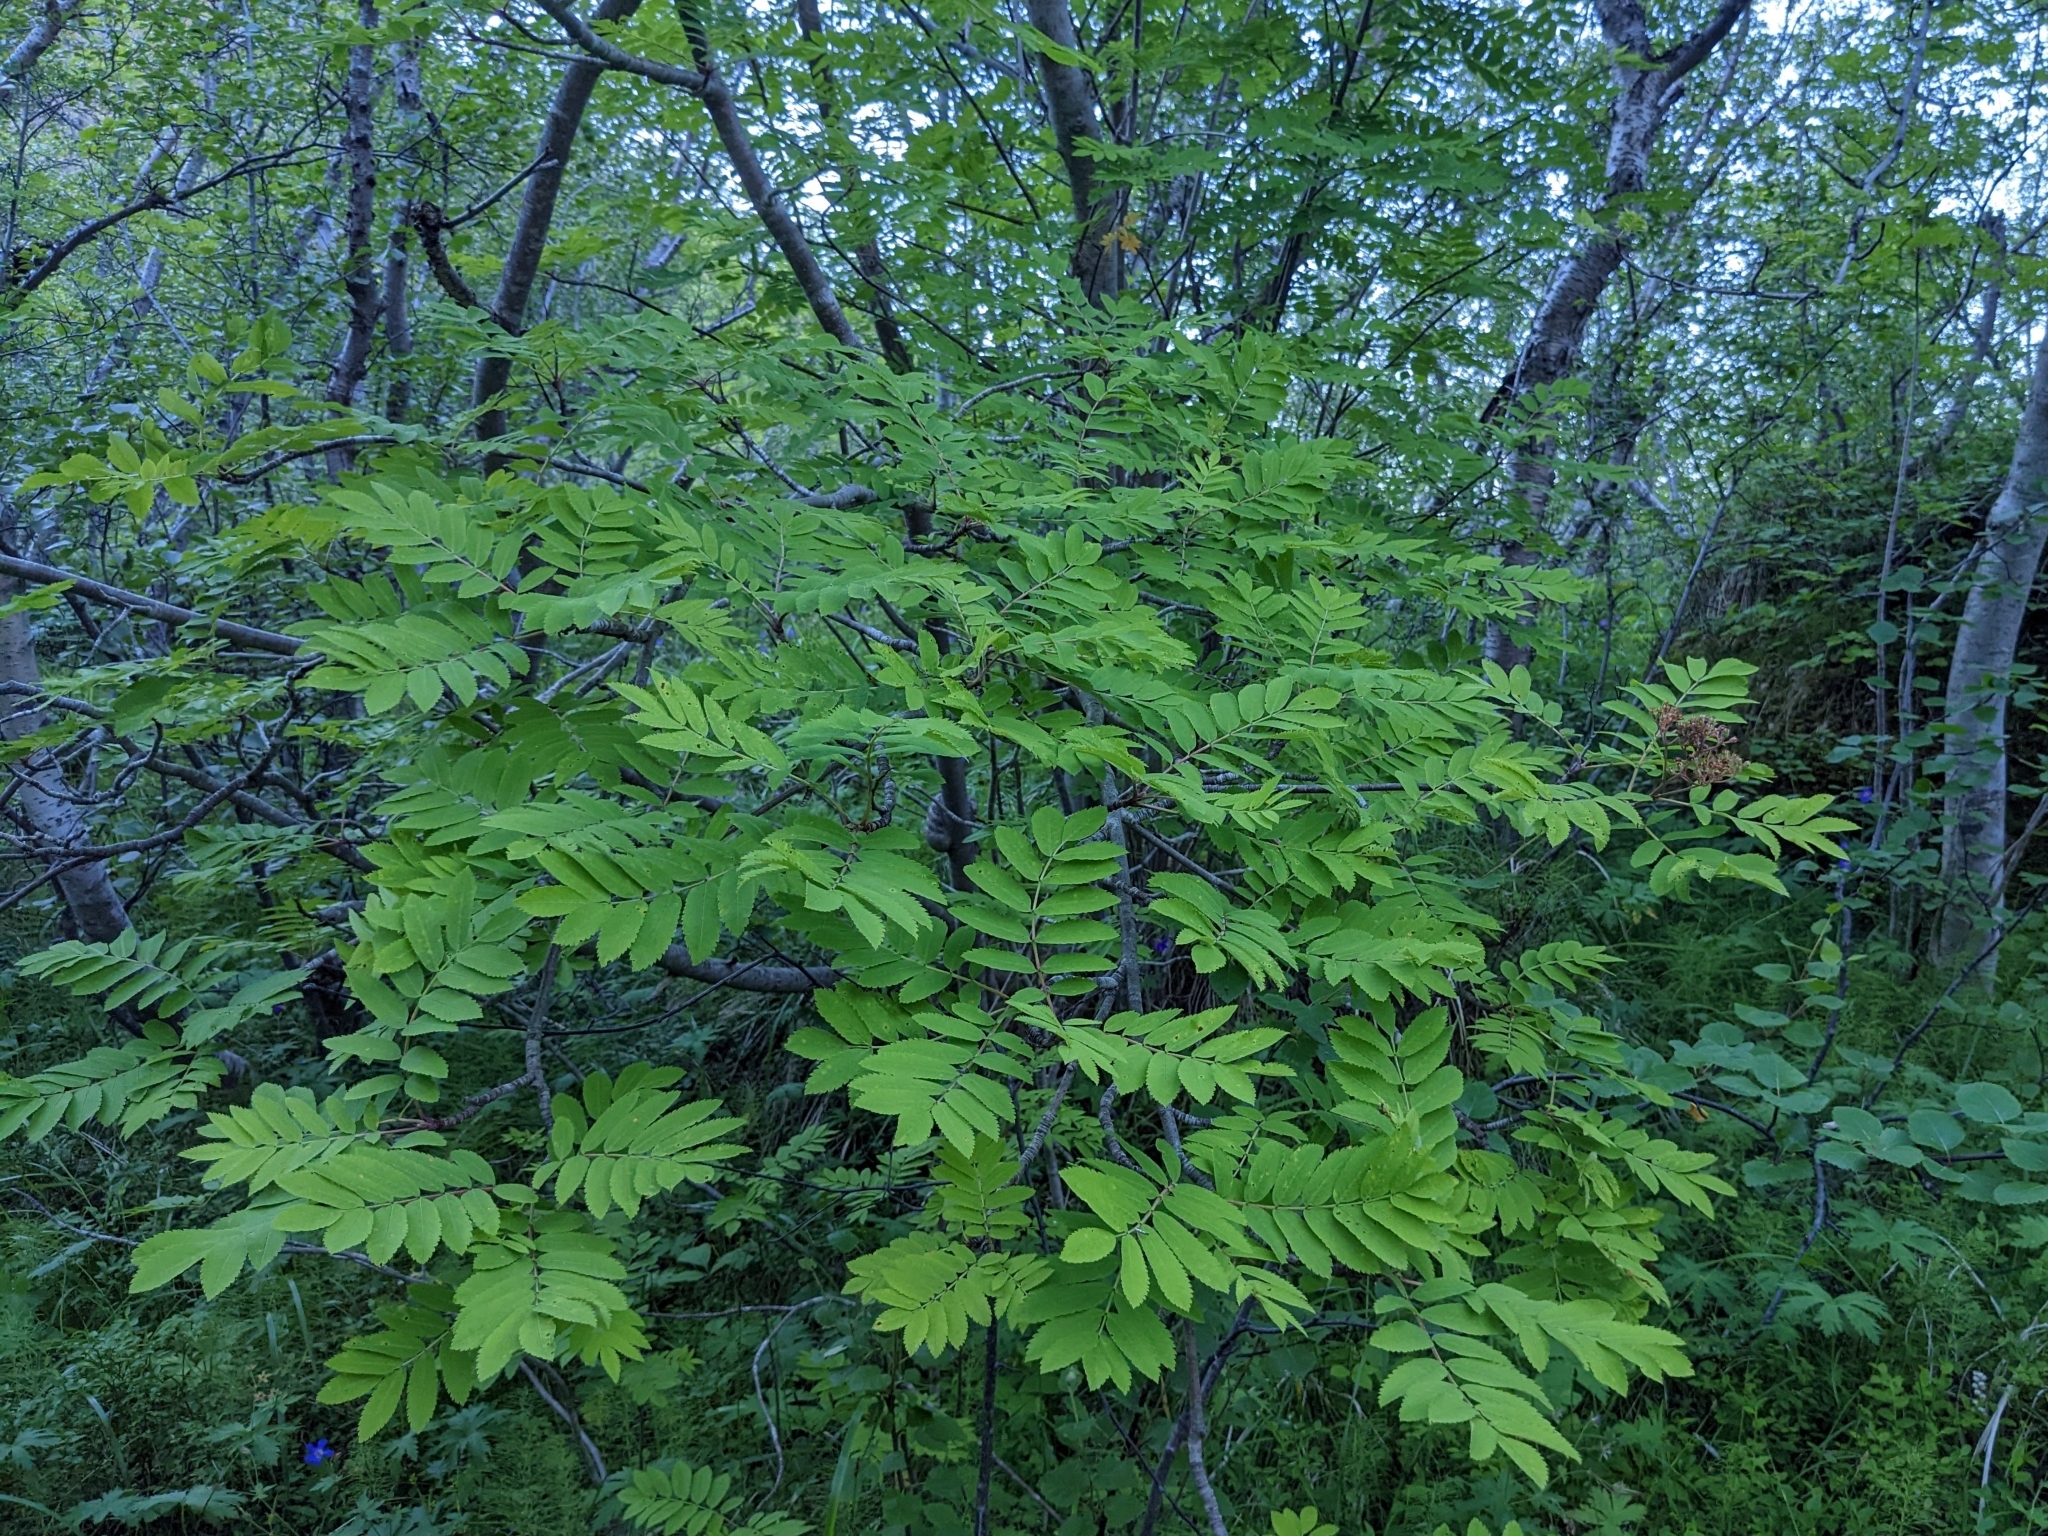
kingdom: Plantae
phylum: Tracheophyta
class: Magnoliopsida
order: Rosales
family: Rosaceae
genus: Sorbus
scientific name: Sorbus aucuparia
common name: Rowan
